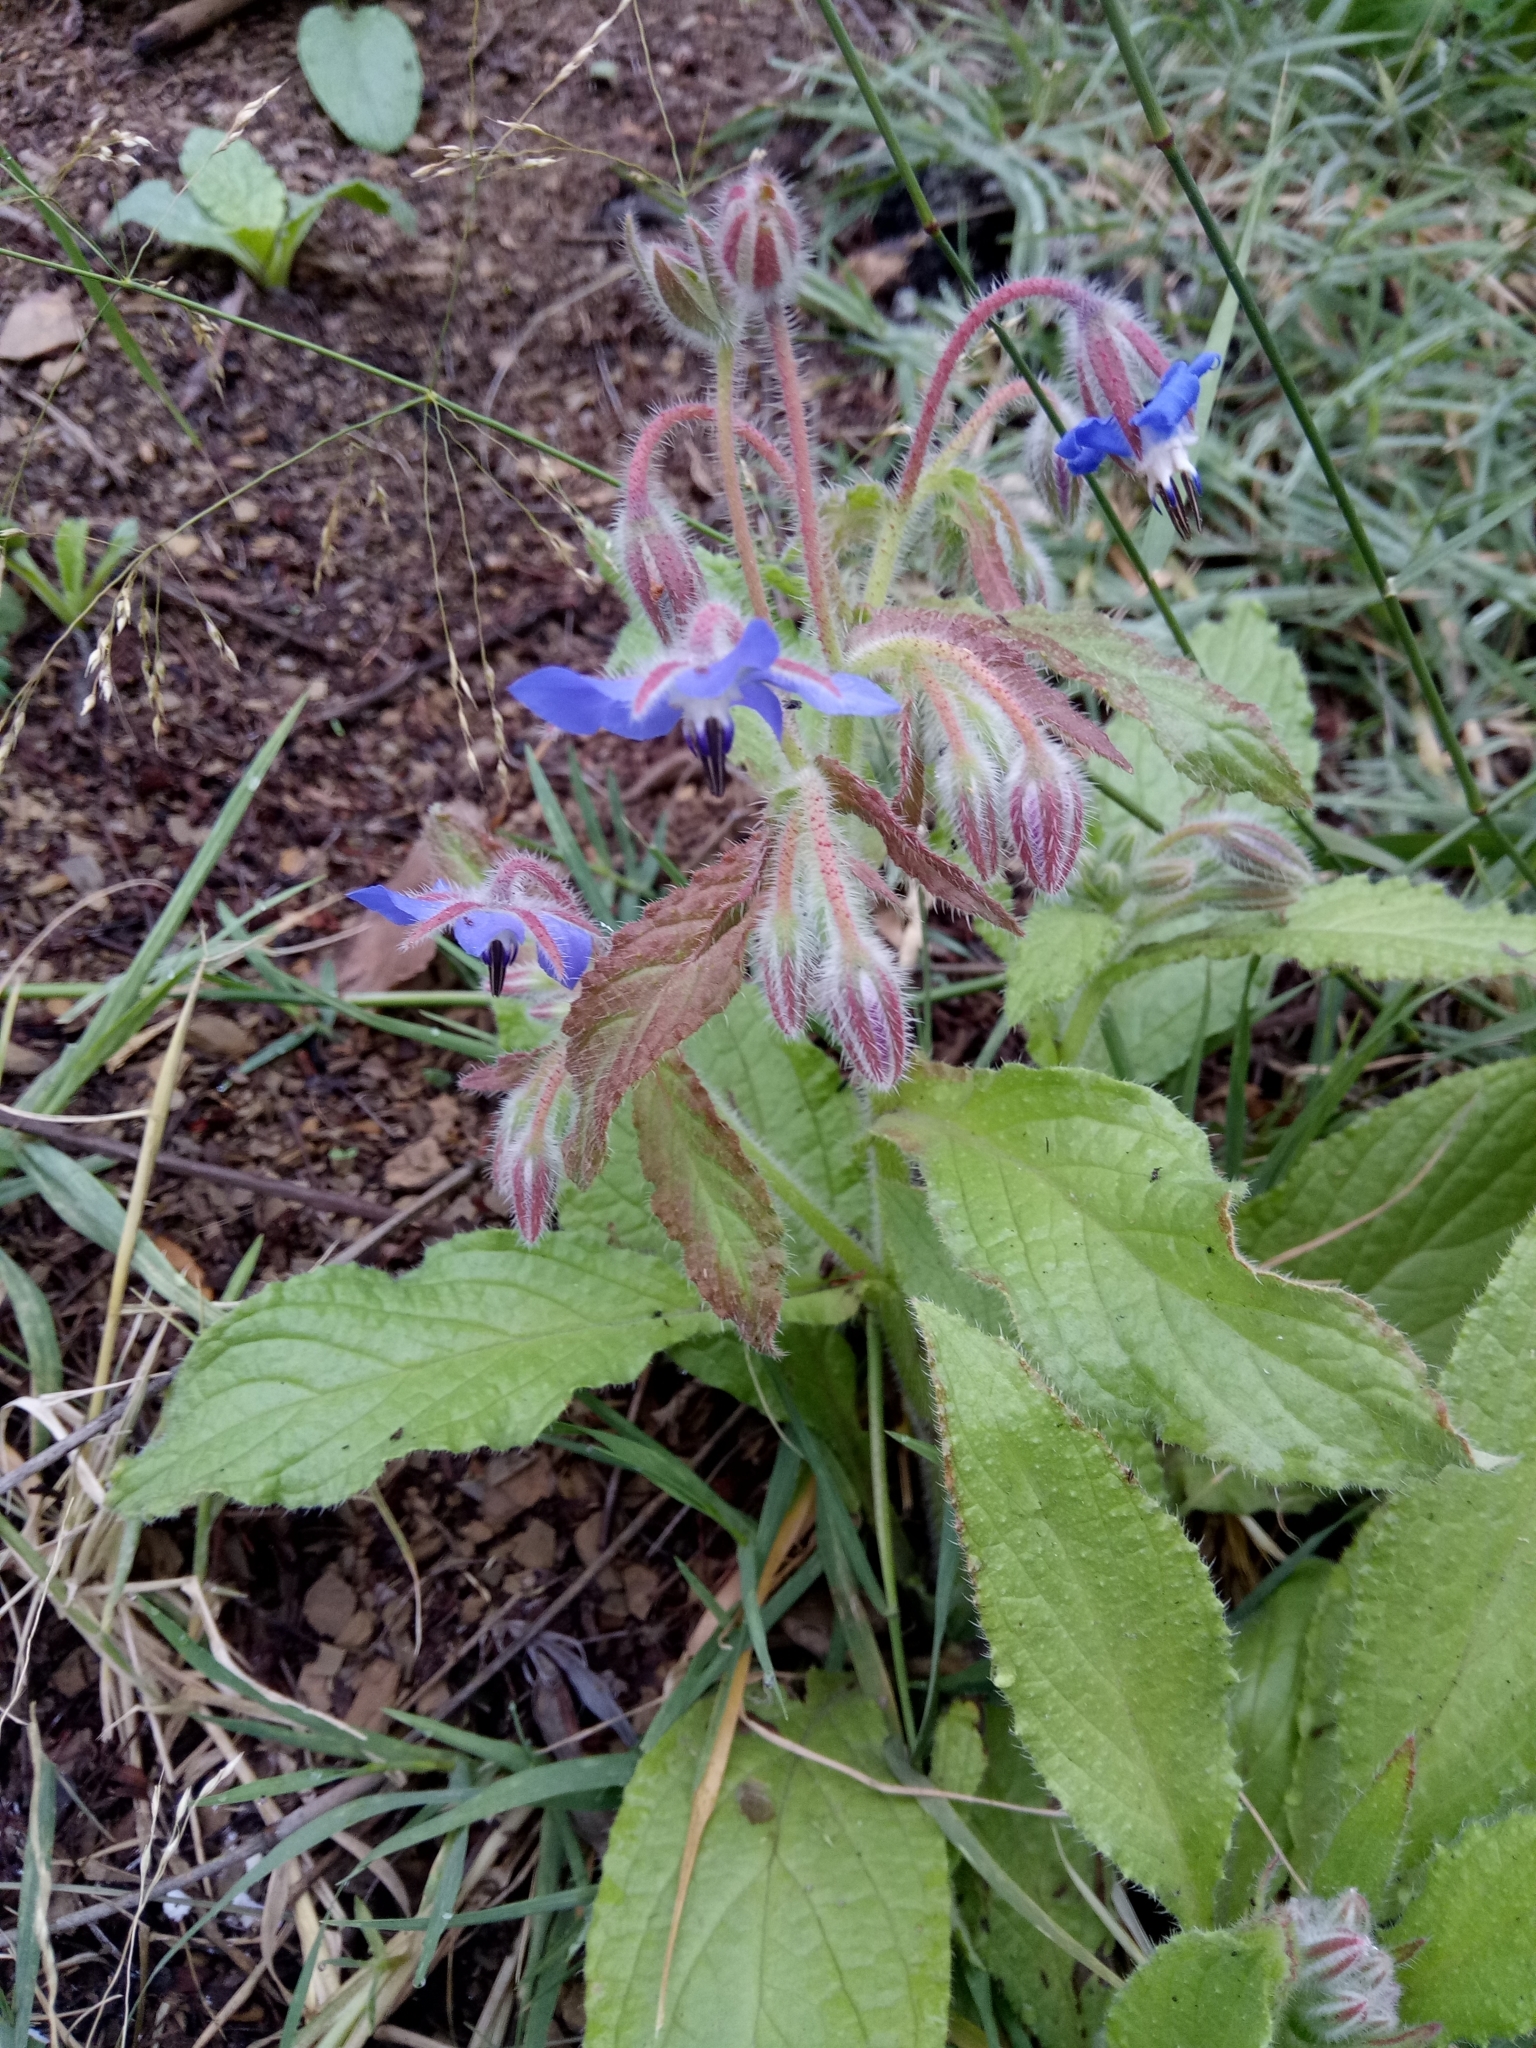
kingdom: Plantae
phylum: Tracheophyta
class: Magnoliopsida
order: Boraginales
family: Boraginaceae
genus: Borago
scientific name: Borago officinalis
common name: Borage
